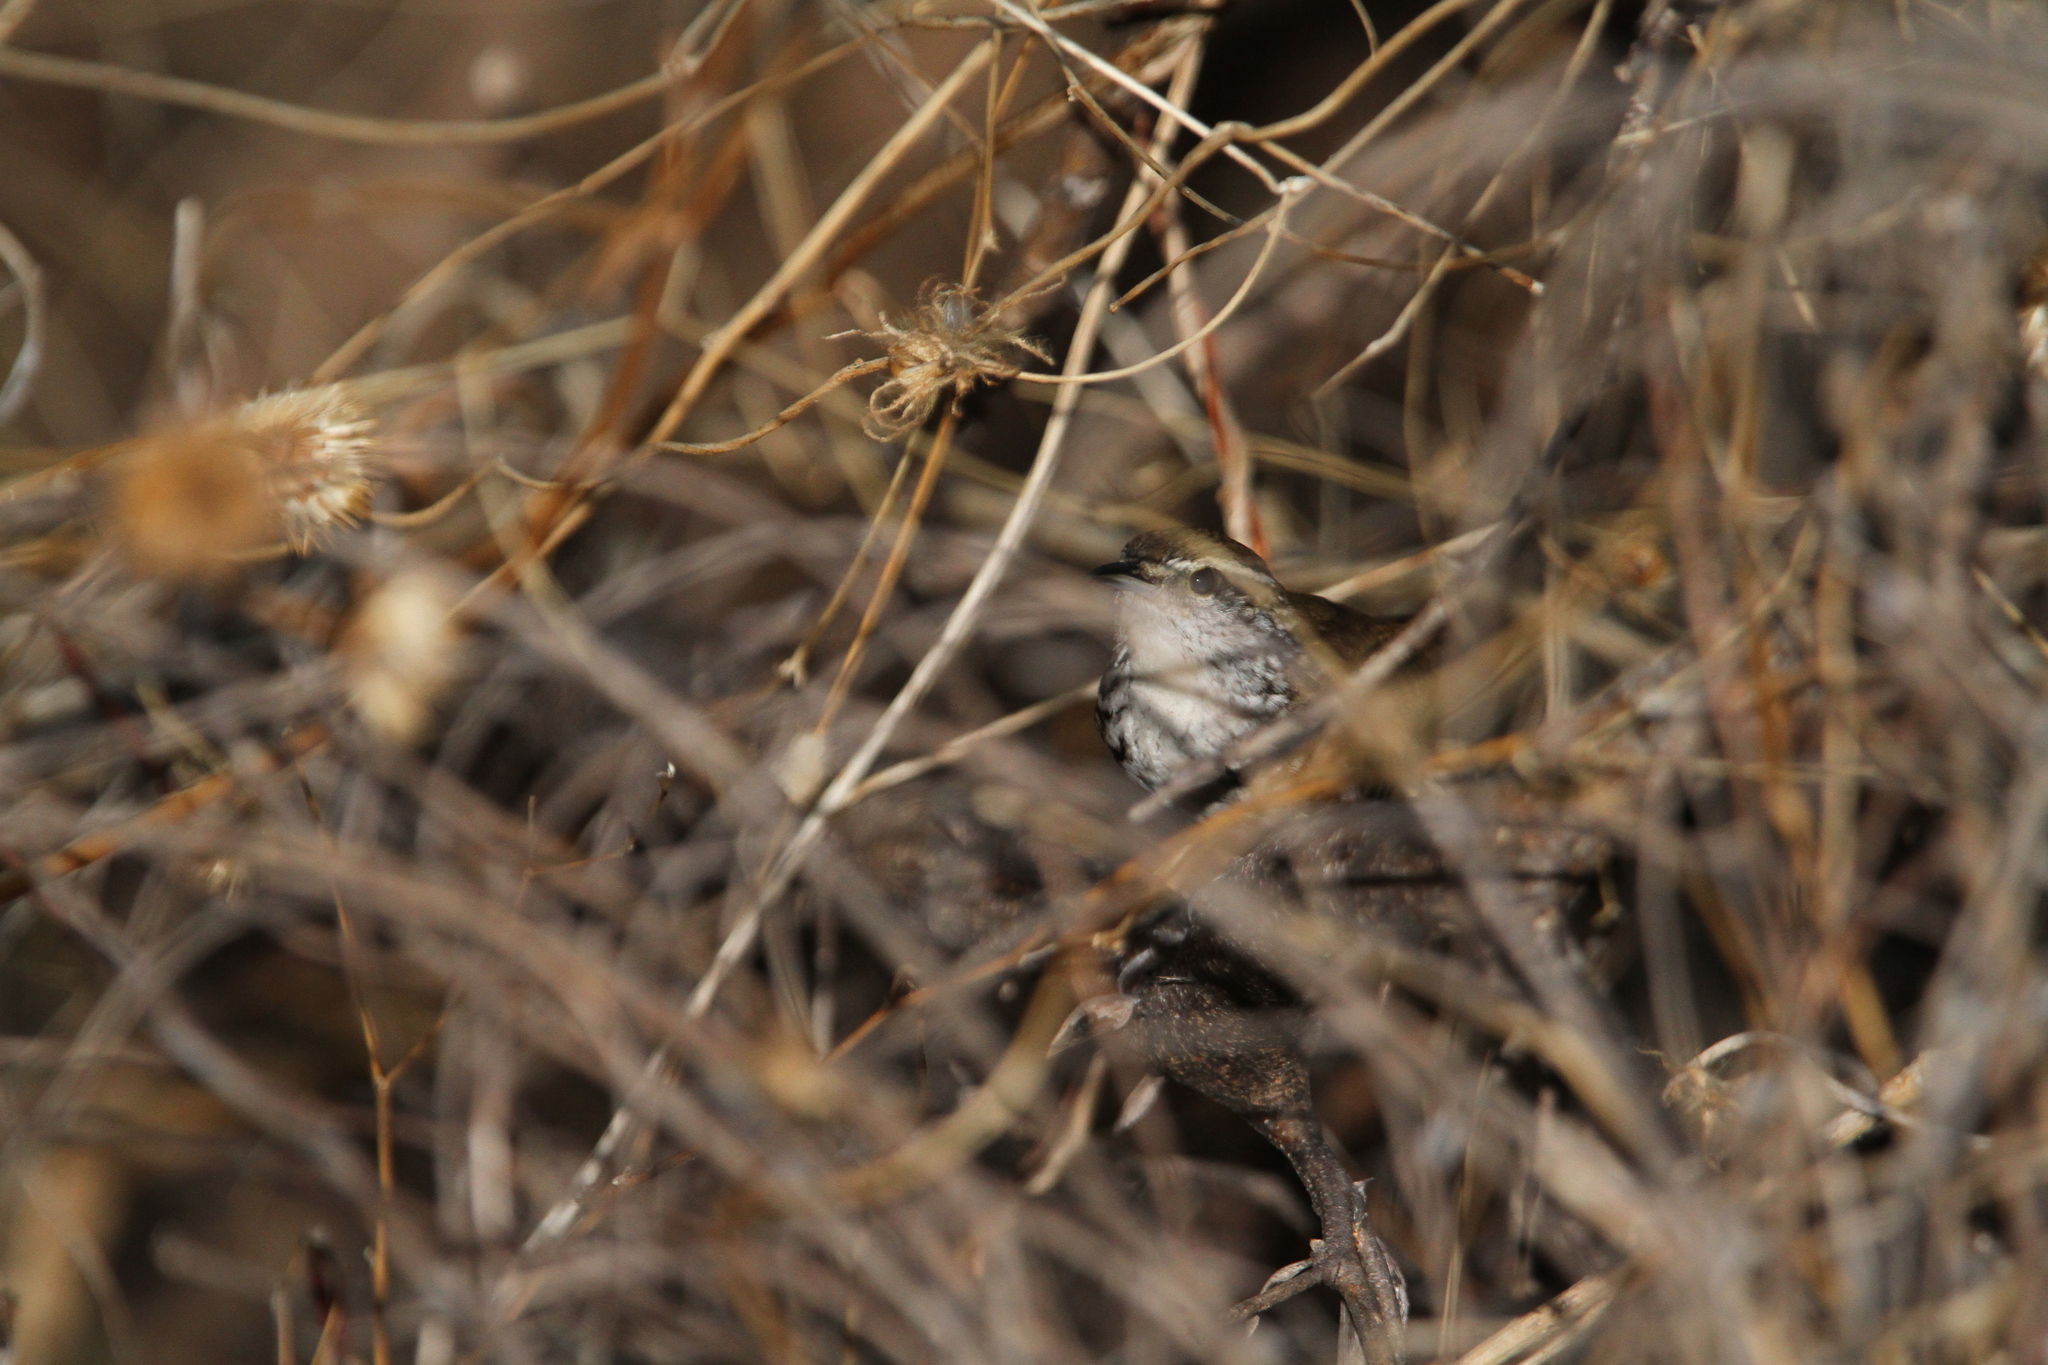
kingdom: Animalia
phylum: Chordata
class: Aves
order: Passeriformes
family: Troglodytidae
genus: Thryophilus
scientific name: Thryophilus pleurostictus
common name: Banded wren
